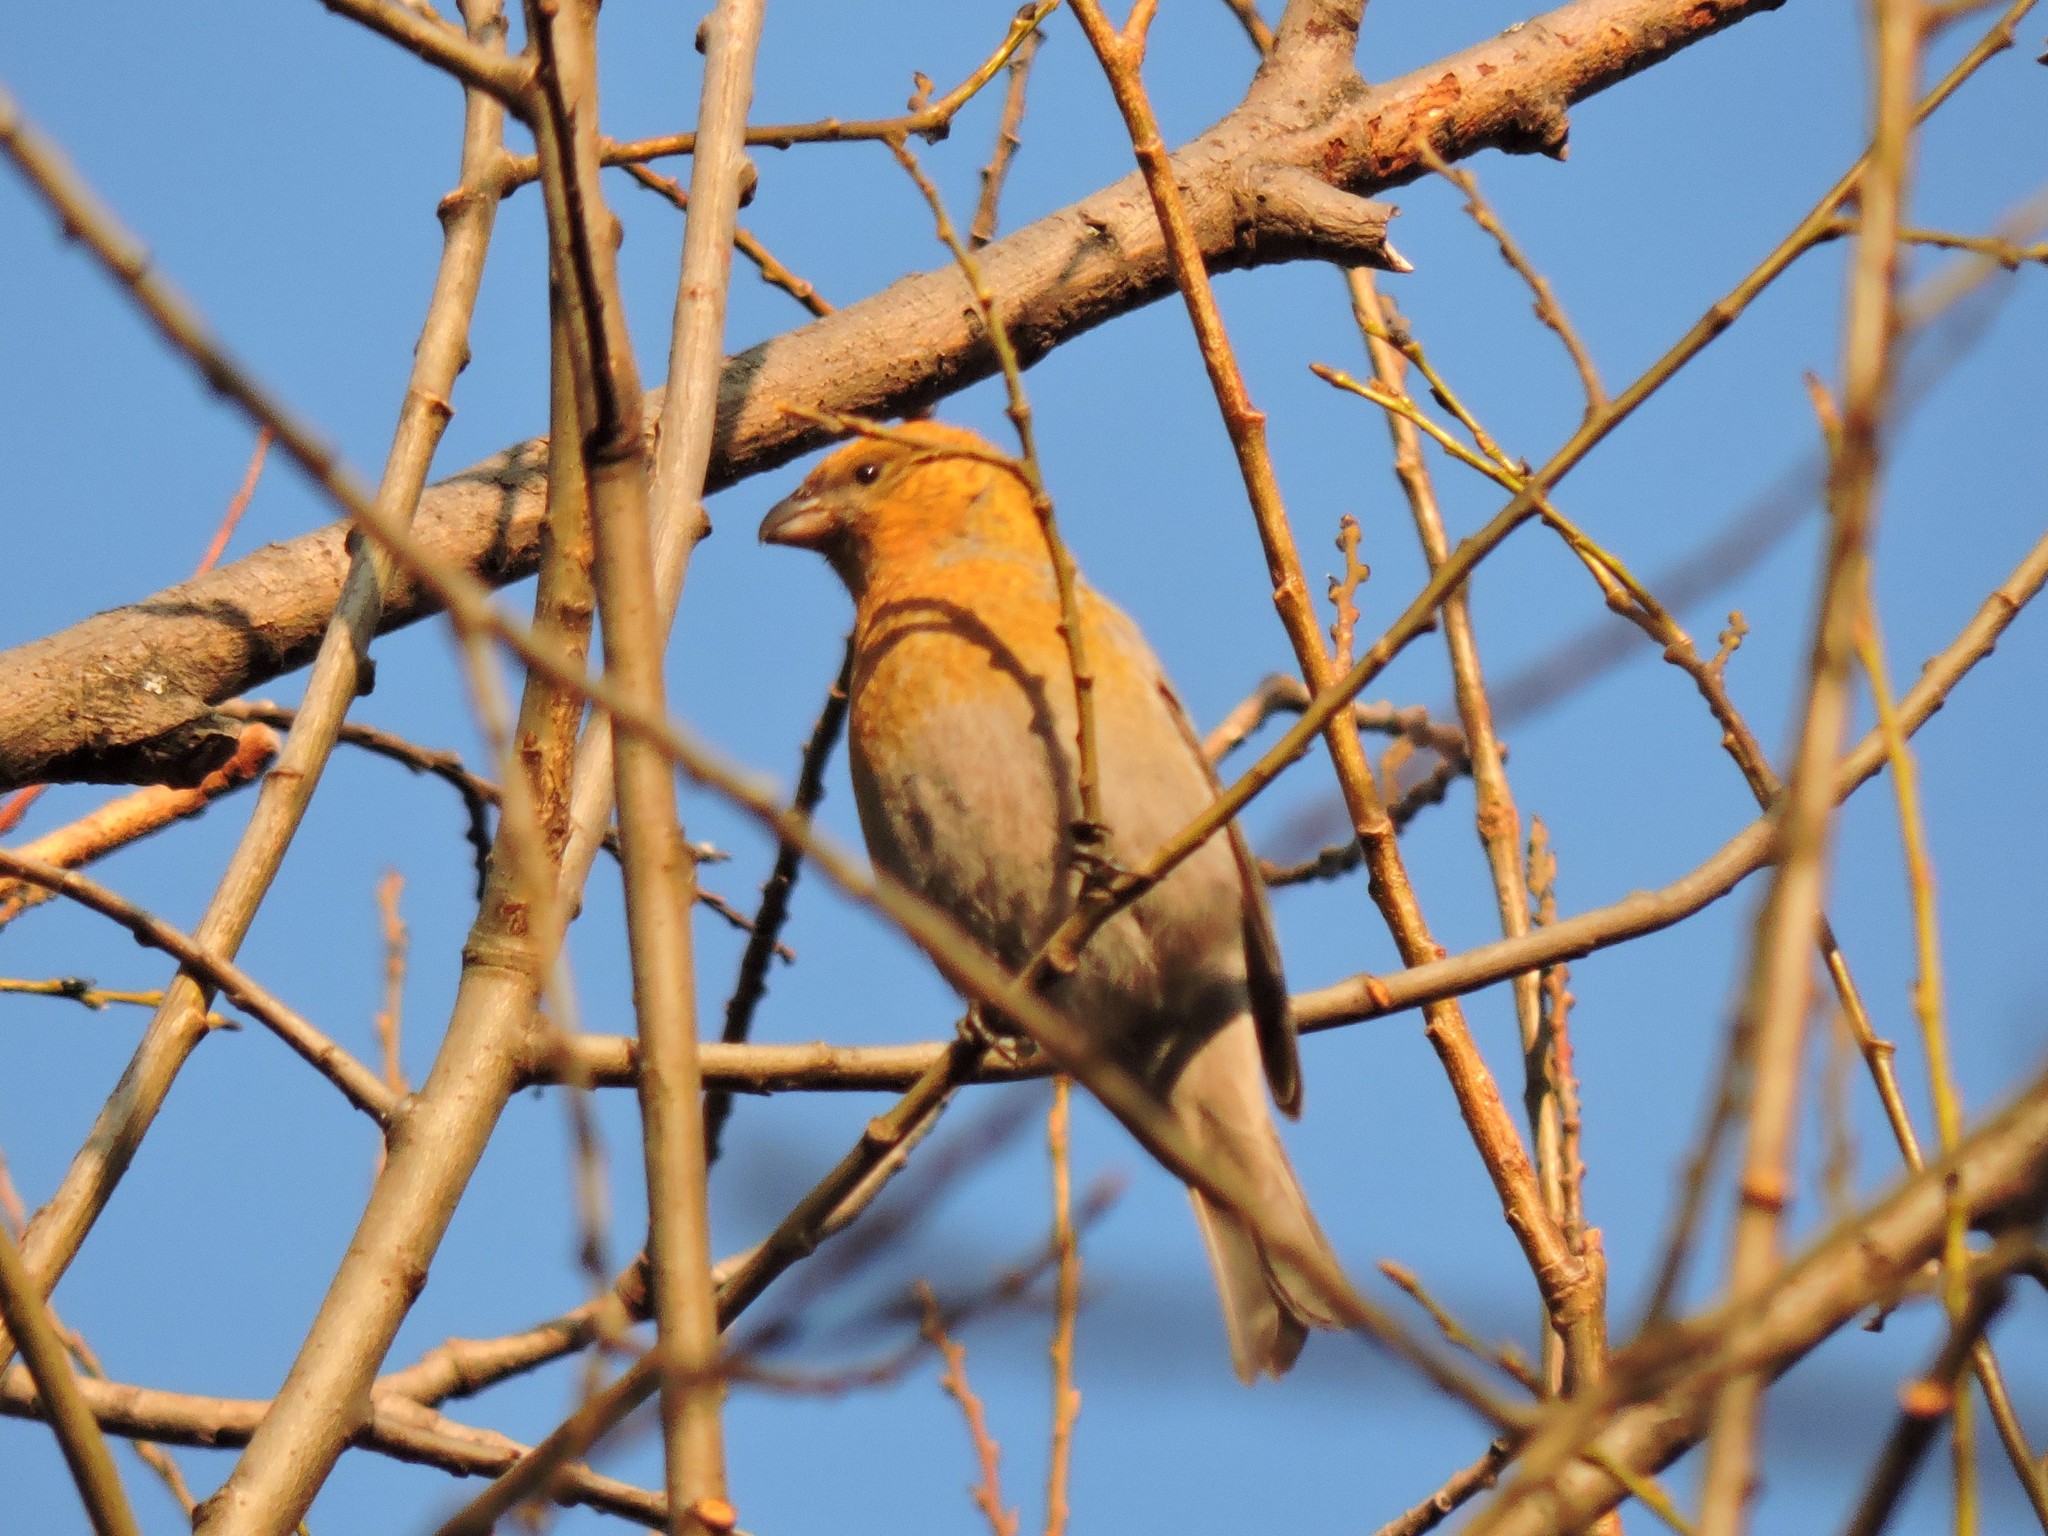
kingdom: Animalia
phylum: Chordata
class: Aves
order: Passeriformes
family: Fringillidae
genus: Pinicola
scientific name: Pinicola enucleator
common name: Pine grosbeak
